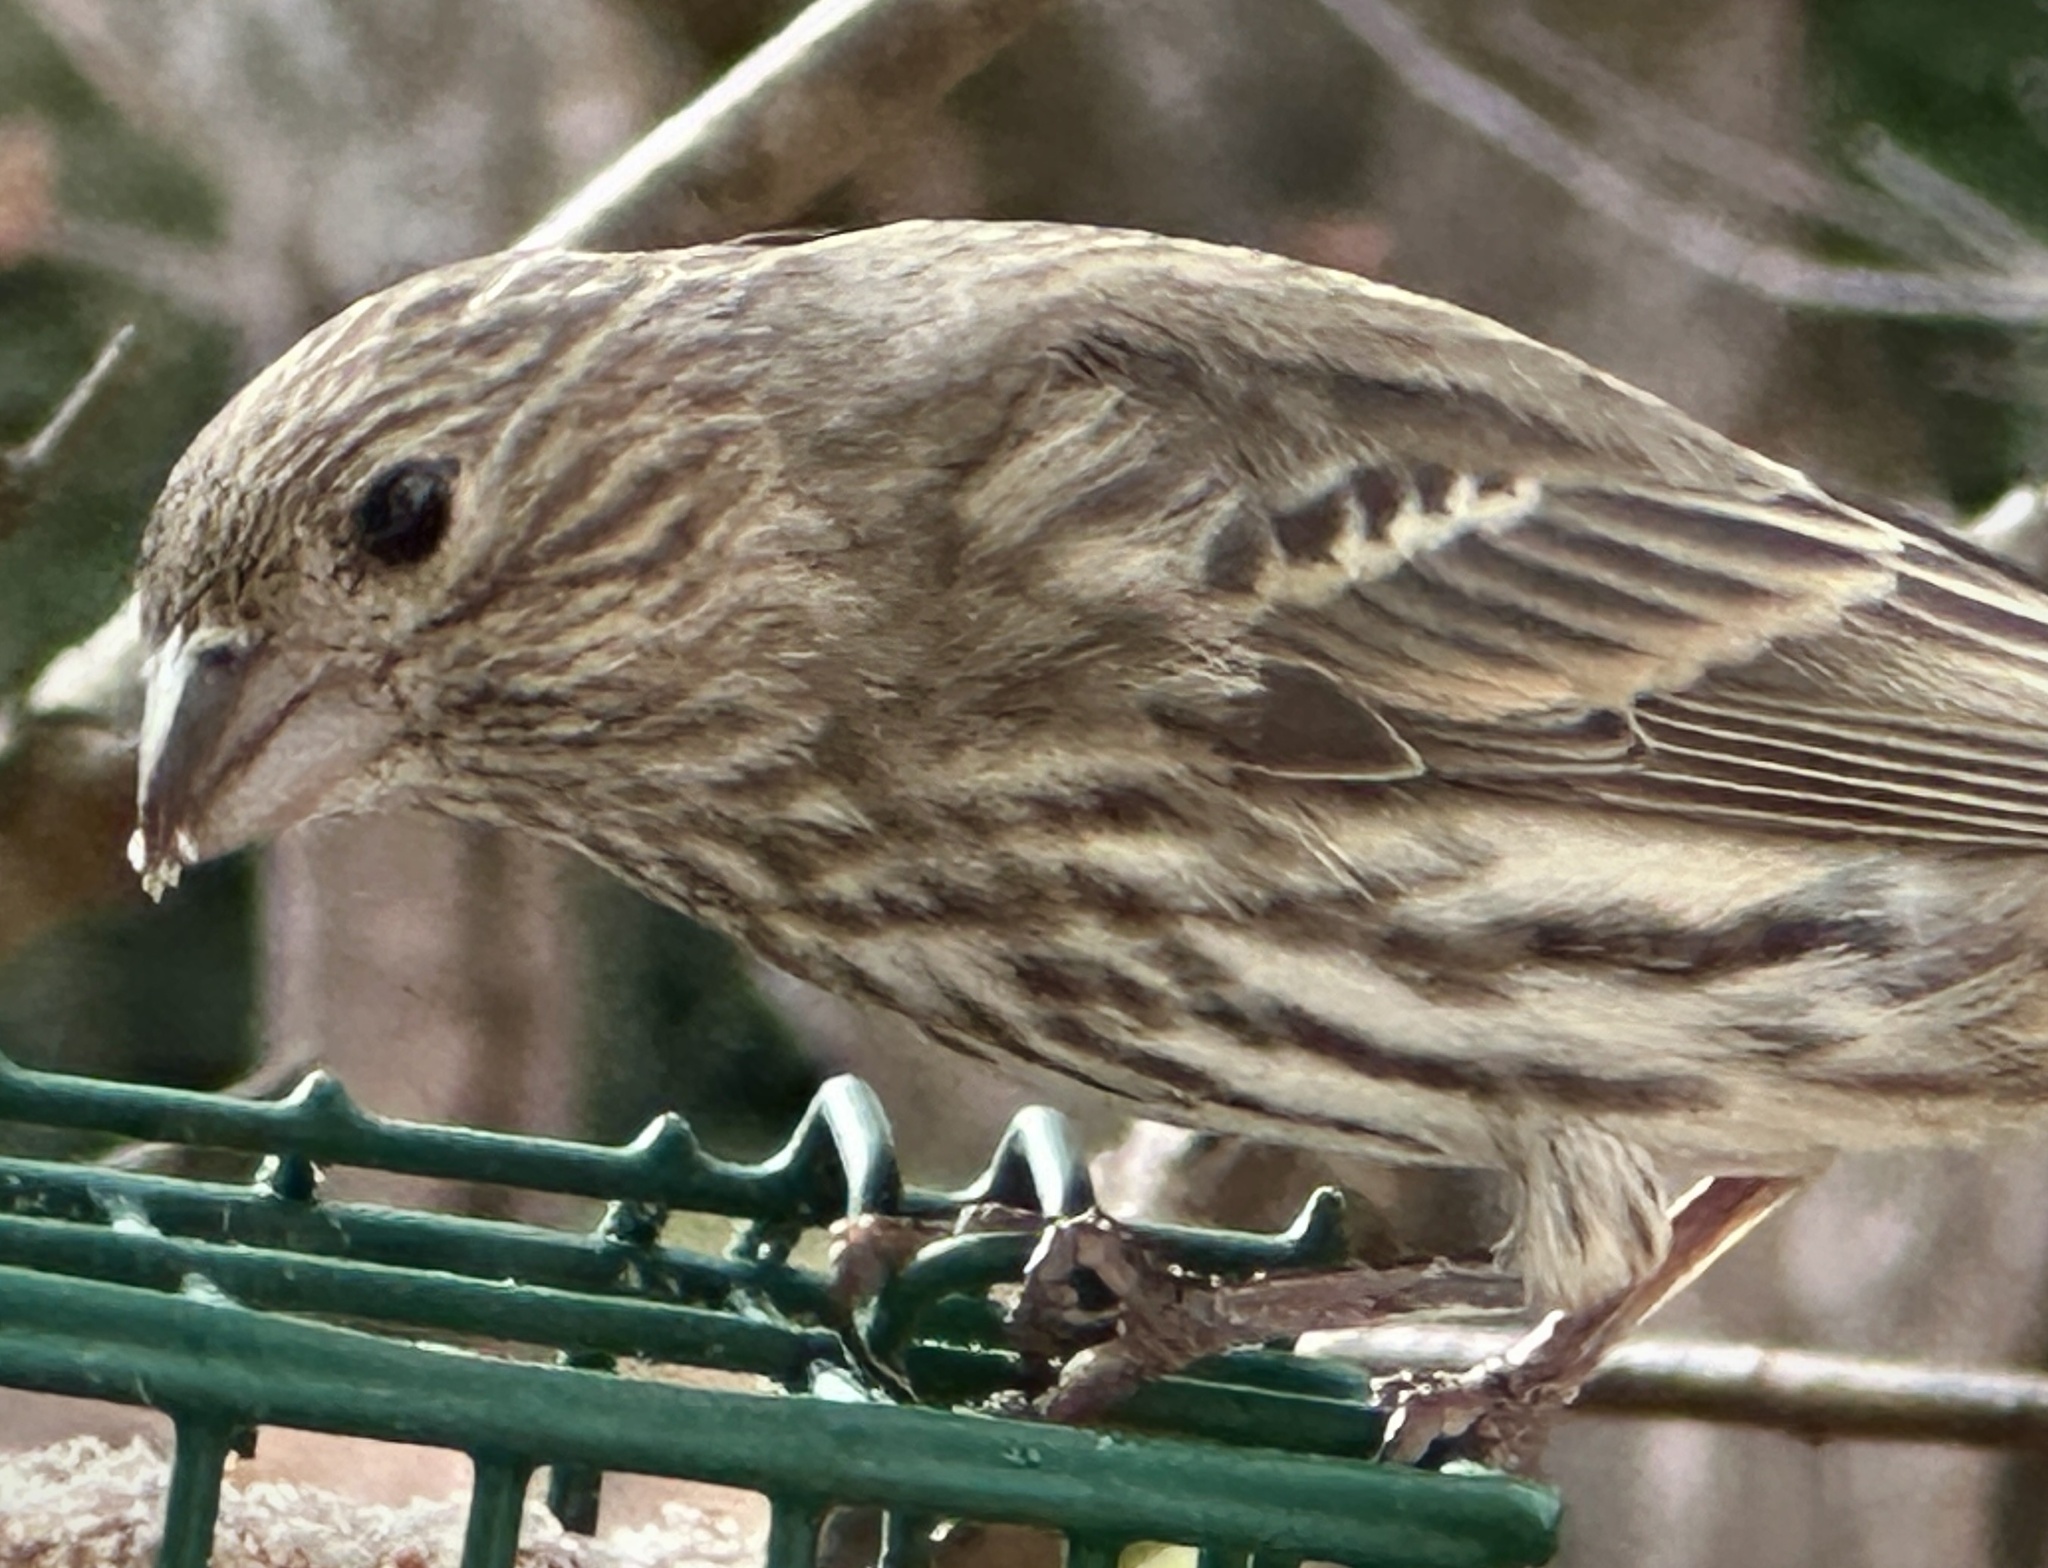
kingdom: Animalia
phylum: Chordata
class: Aves
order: Passeriformes
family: Fringillidae
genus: Haemorhous
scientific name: Haemorhous mexicanus
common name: House finch
